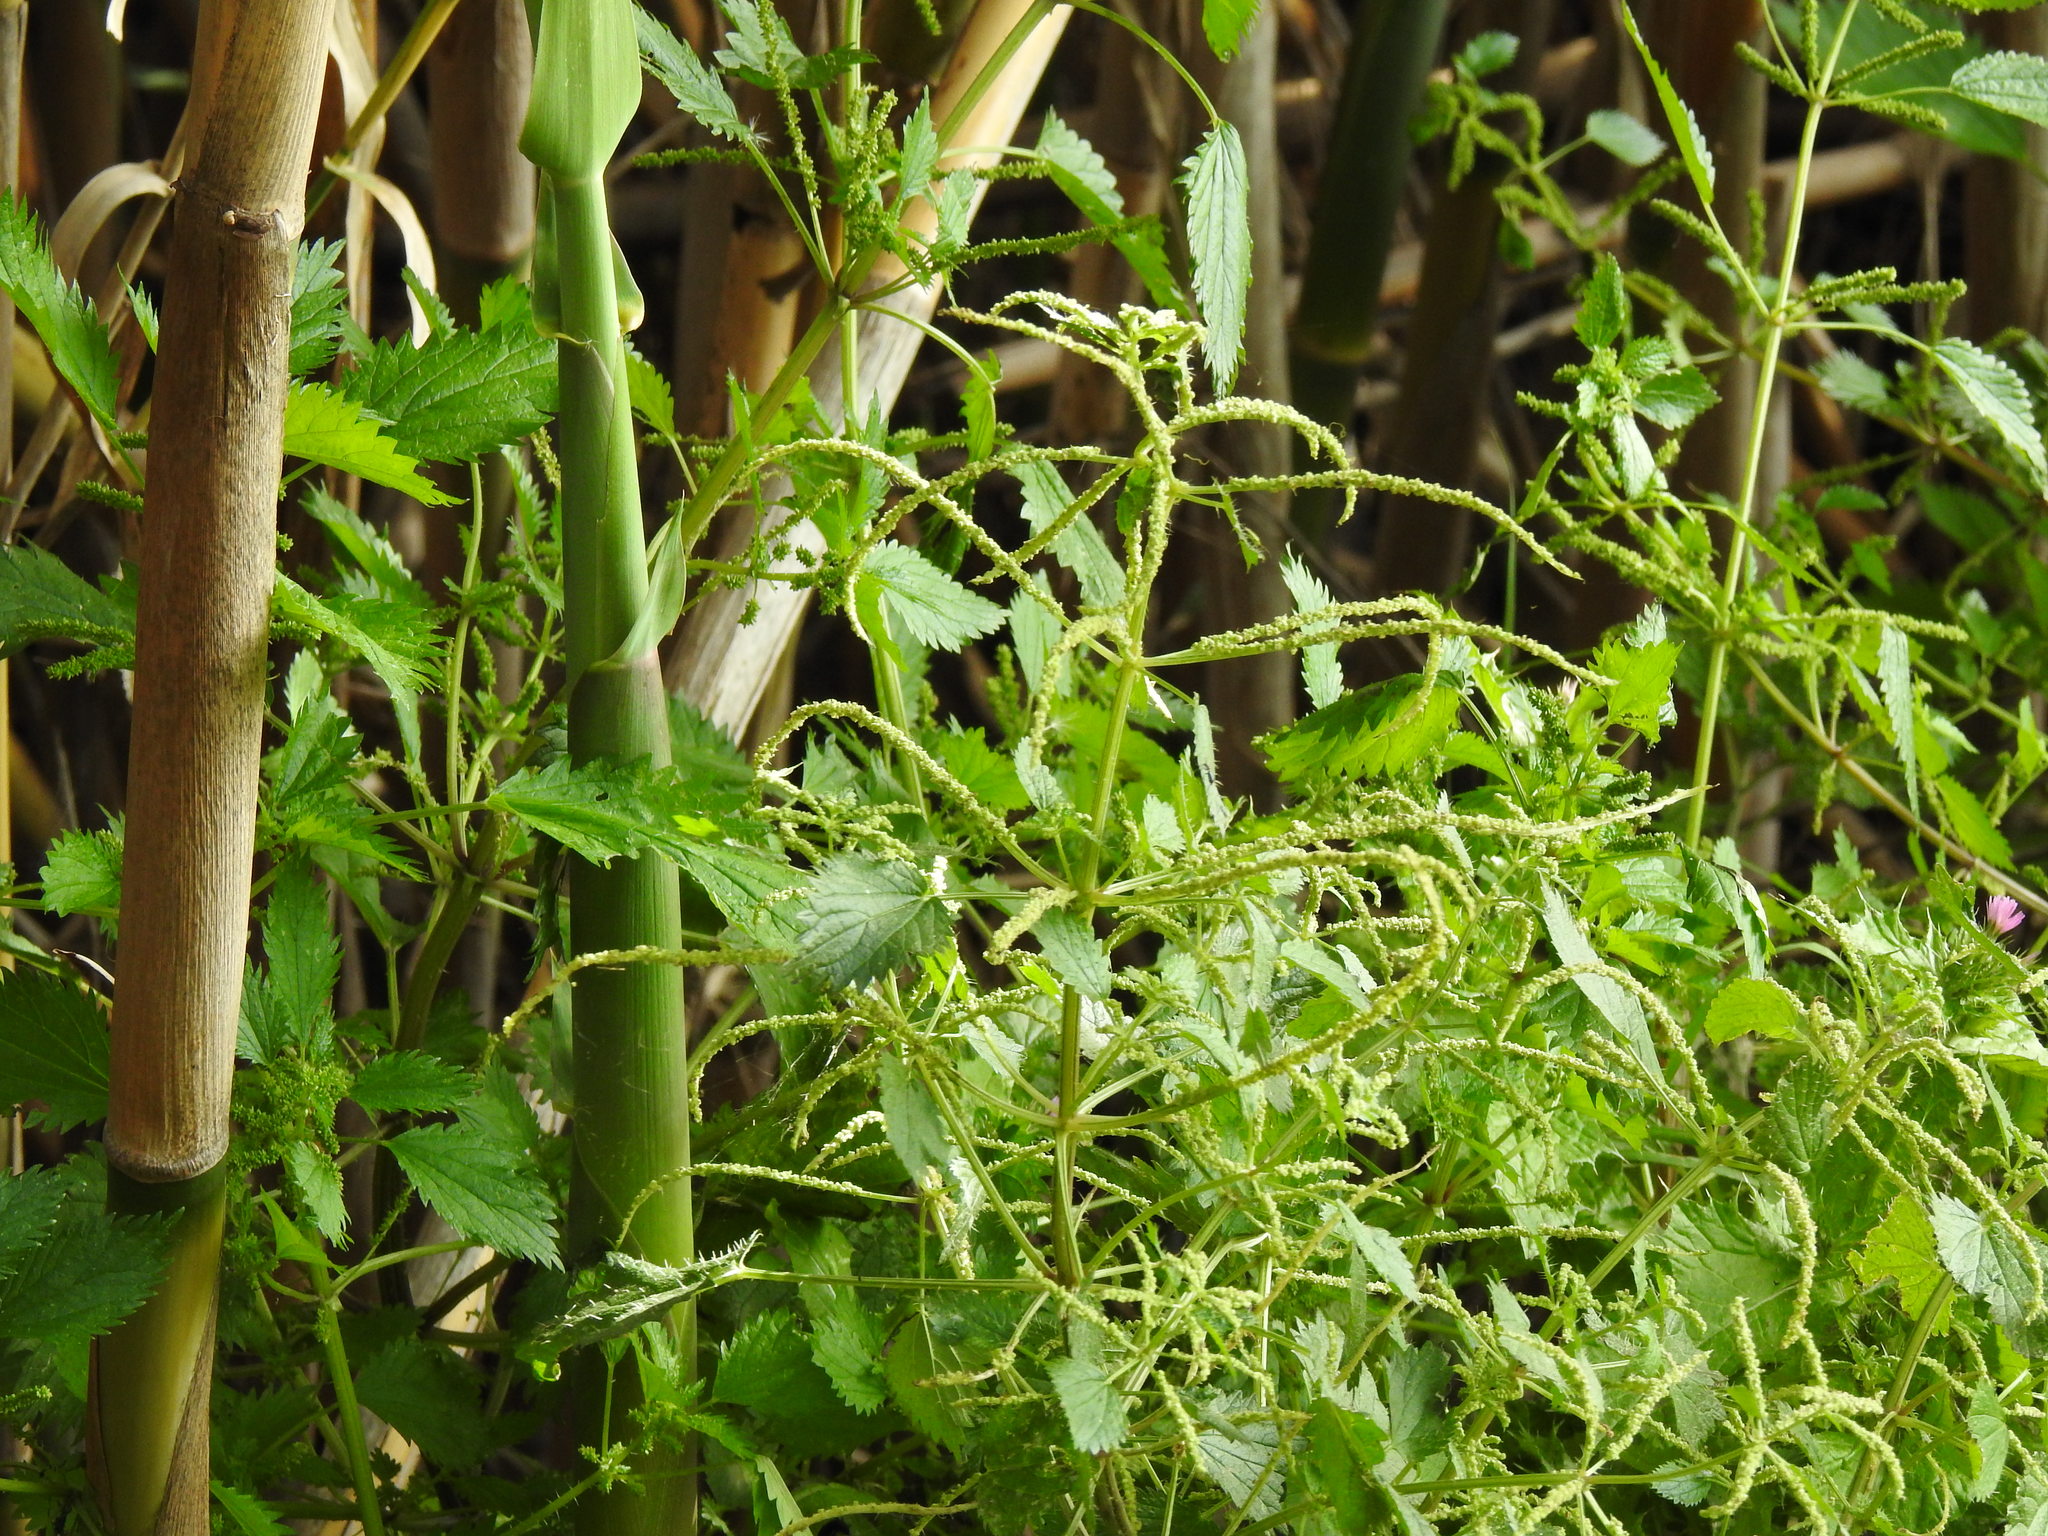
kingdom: Plantae
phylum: Tracheophyta
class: Magnoliopsida
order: Rosales
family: Urticaceae
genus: Urtica
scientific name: Urtica membranacea
